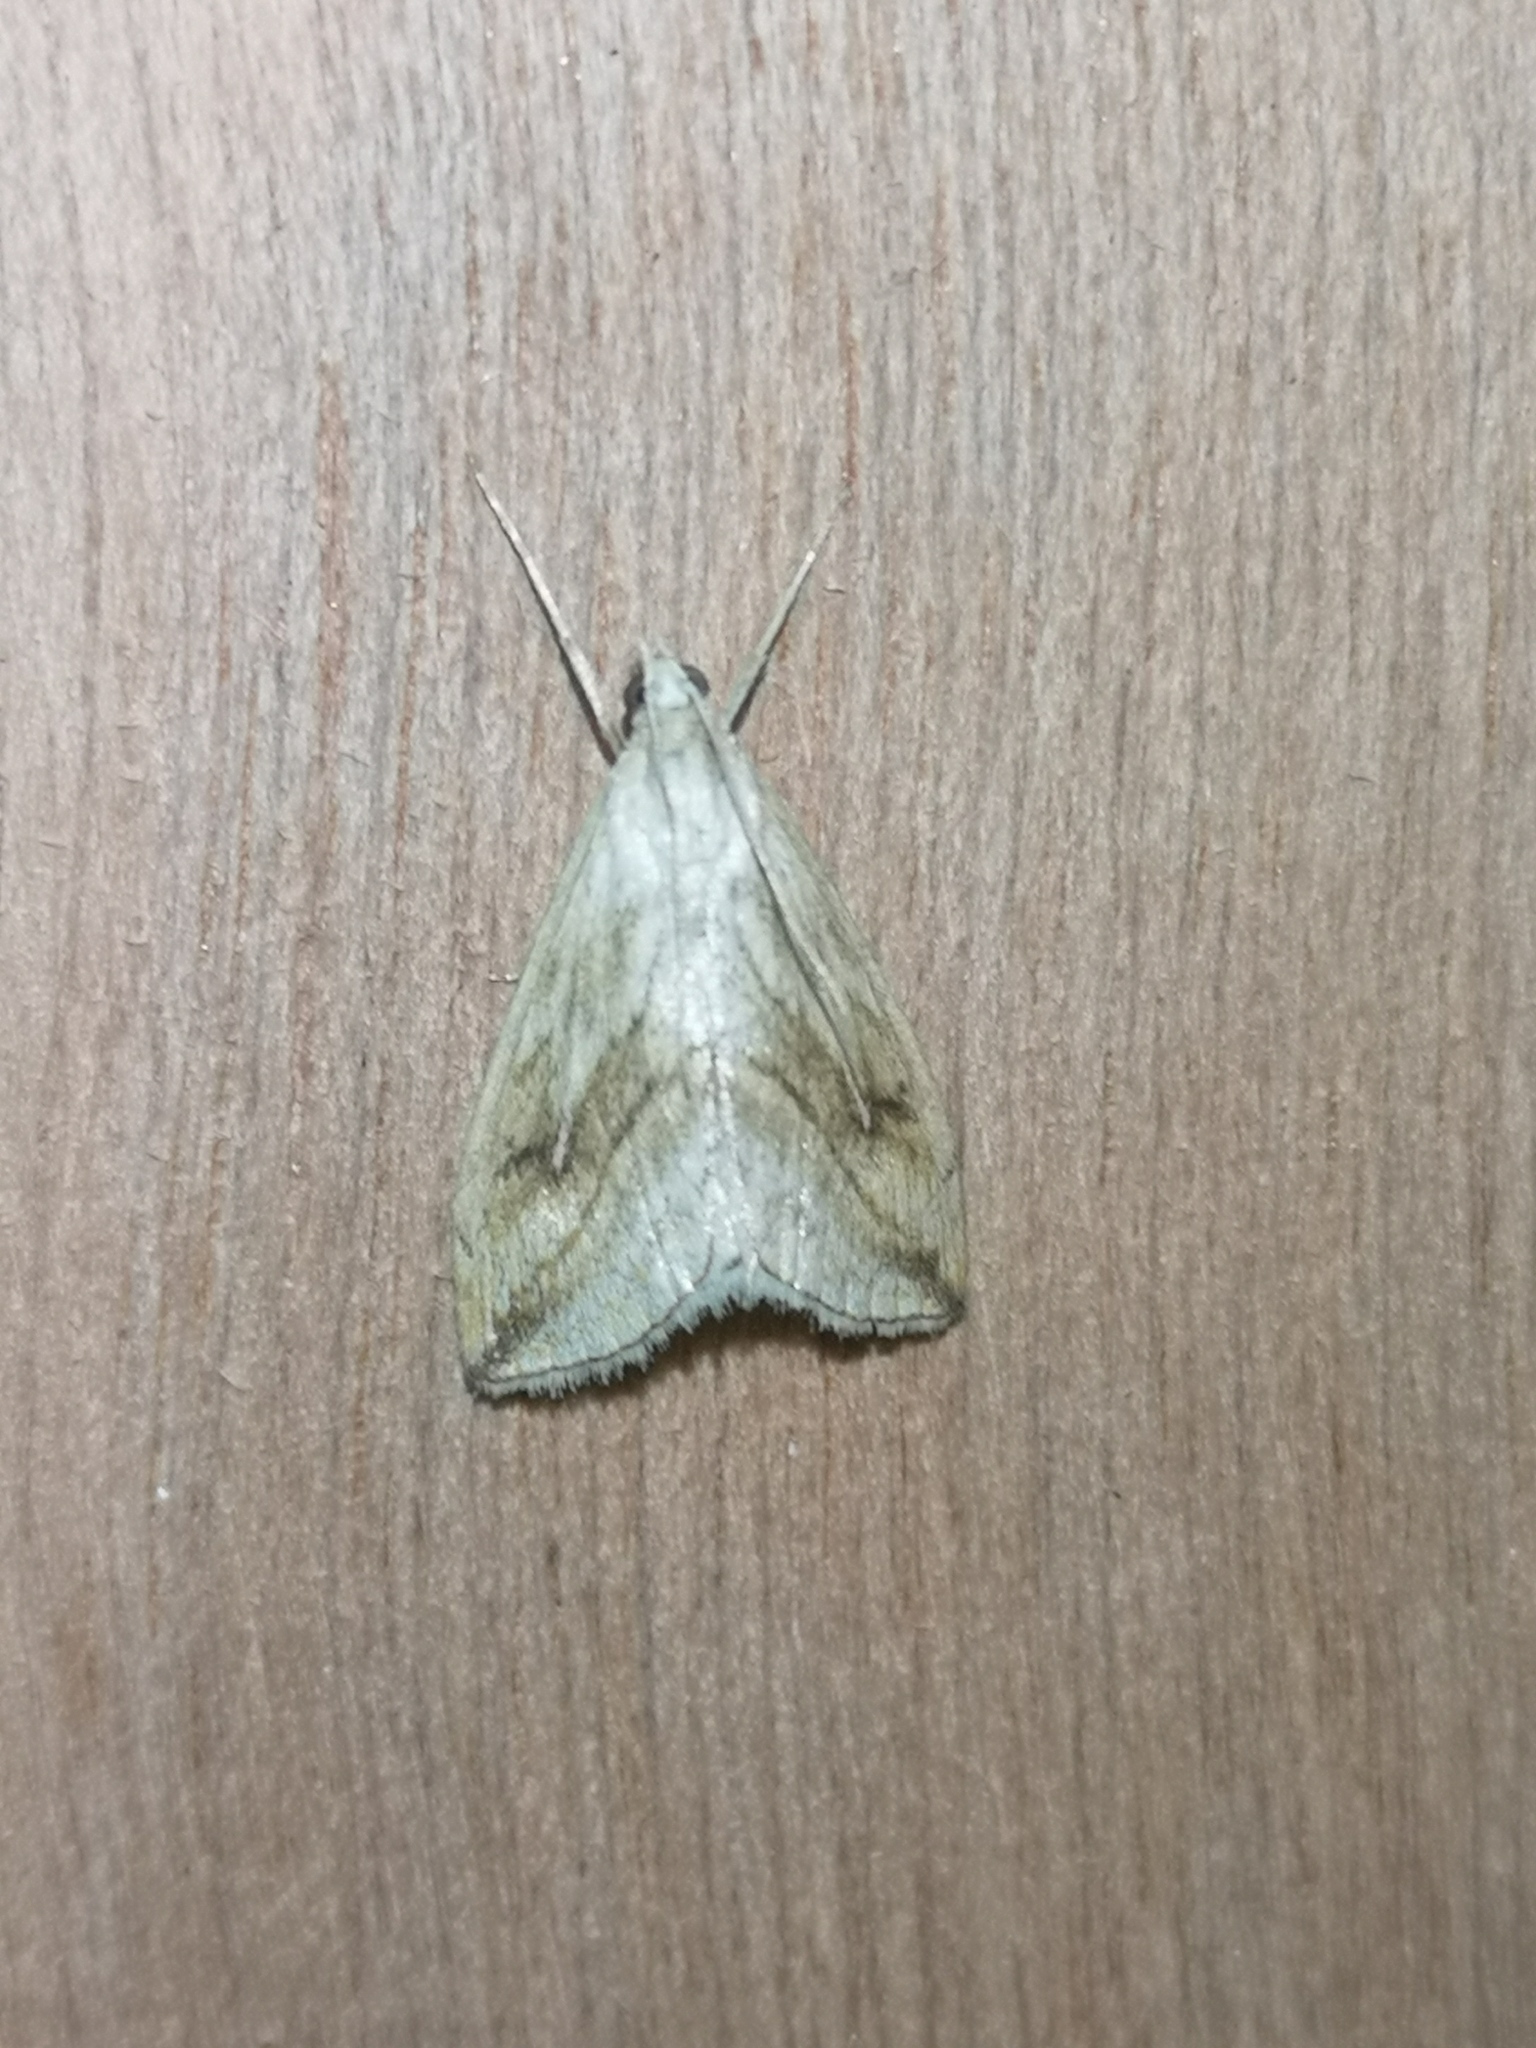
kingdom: Animalia
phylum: Arthropoda
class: Insecta
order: Lepidoptera
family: Crambidae
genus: Evergestis
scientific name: Evergestis forficalis
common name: Garden pebble
